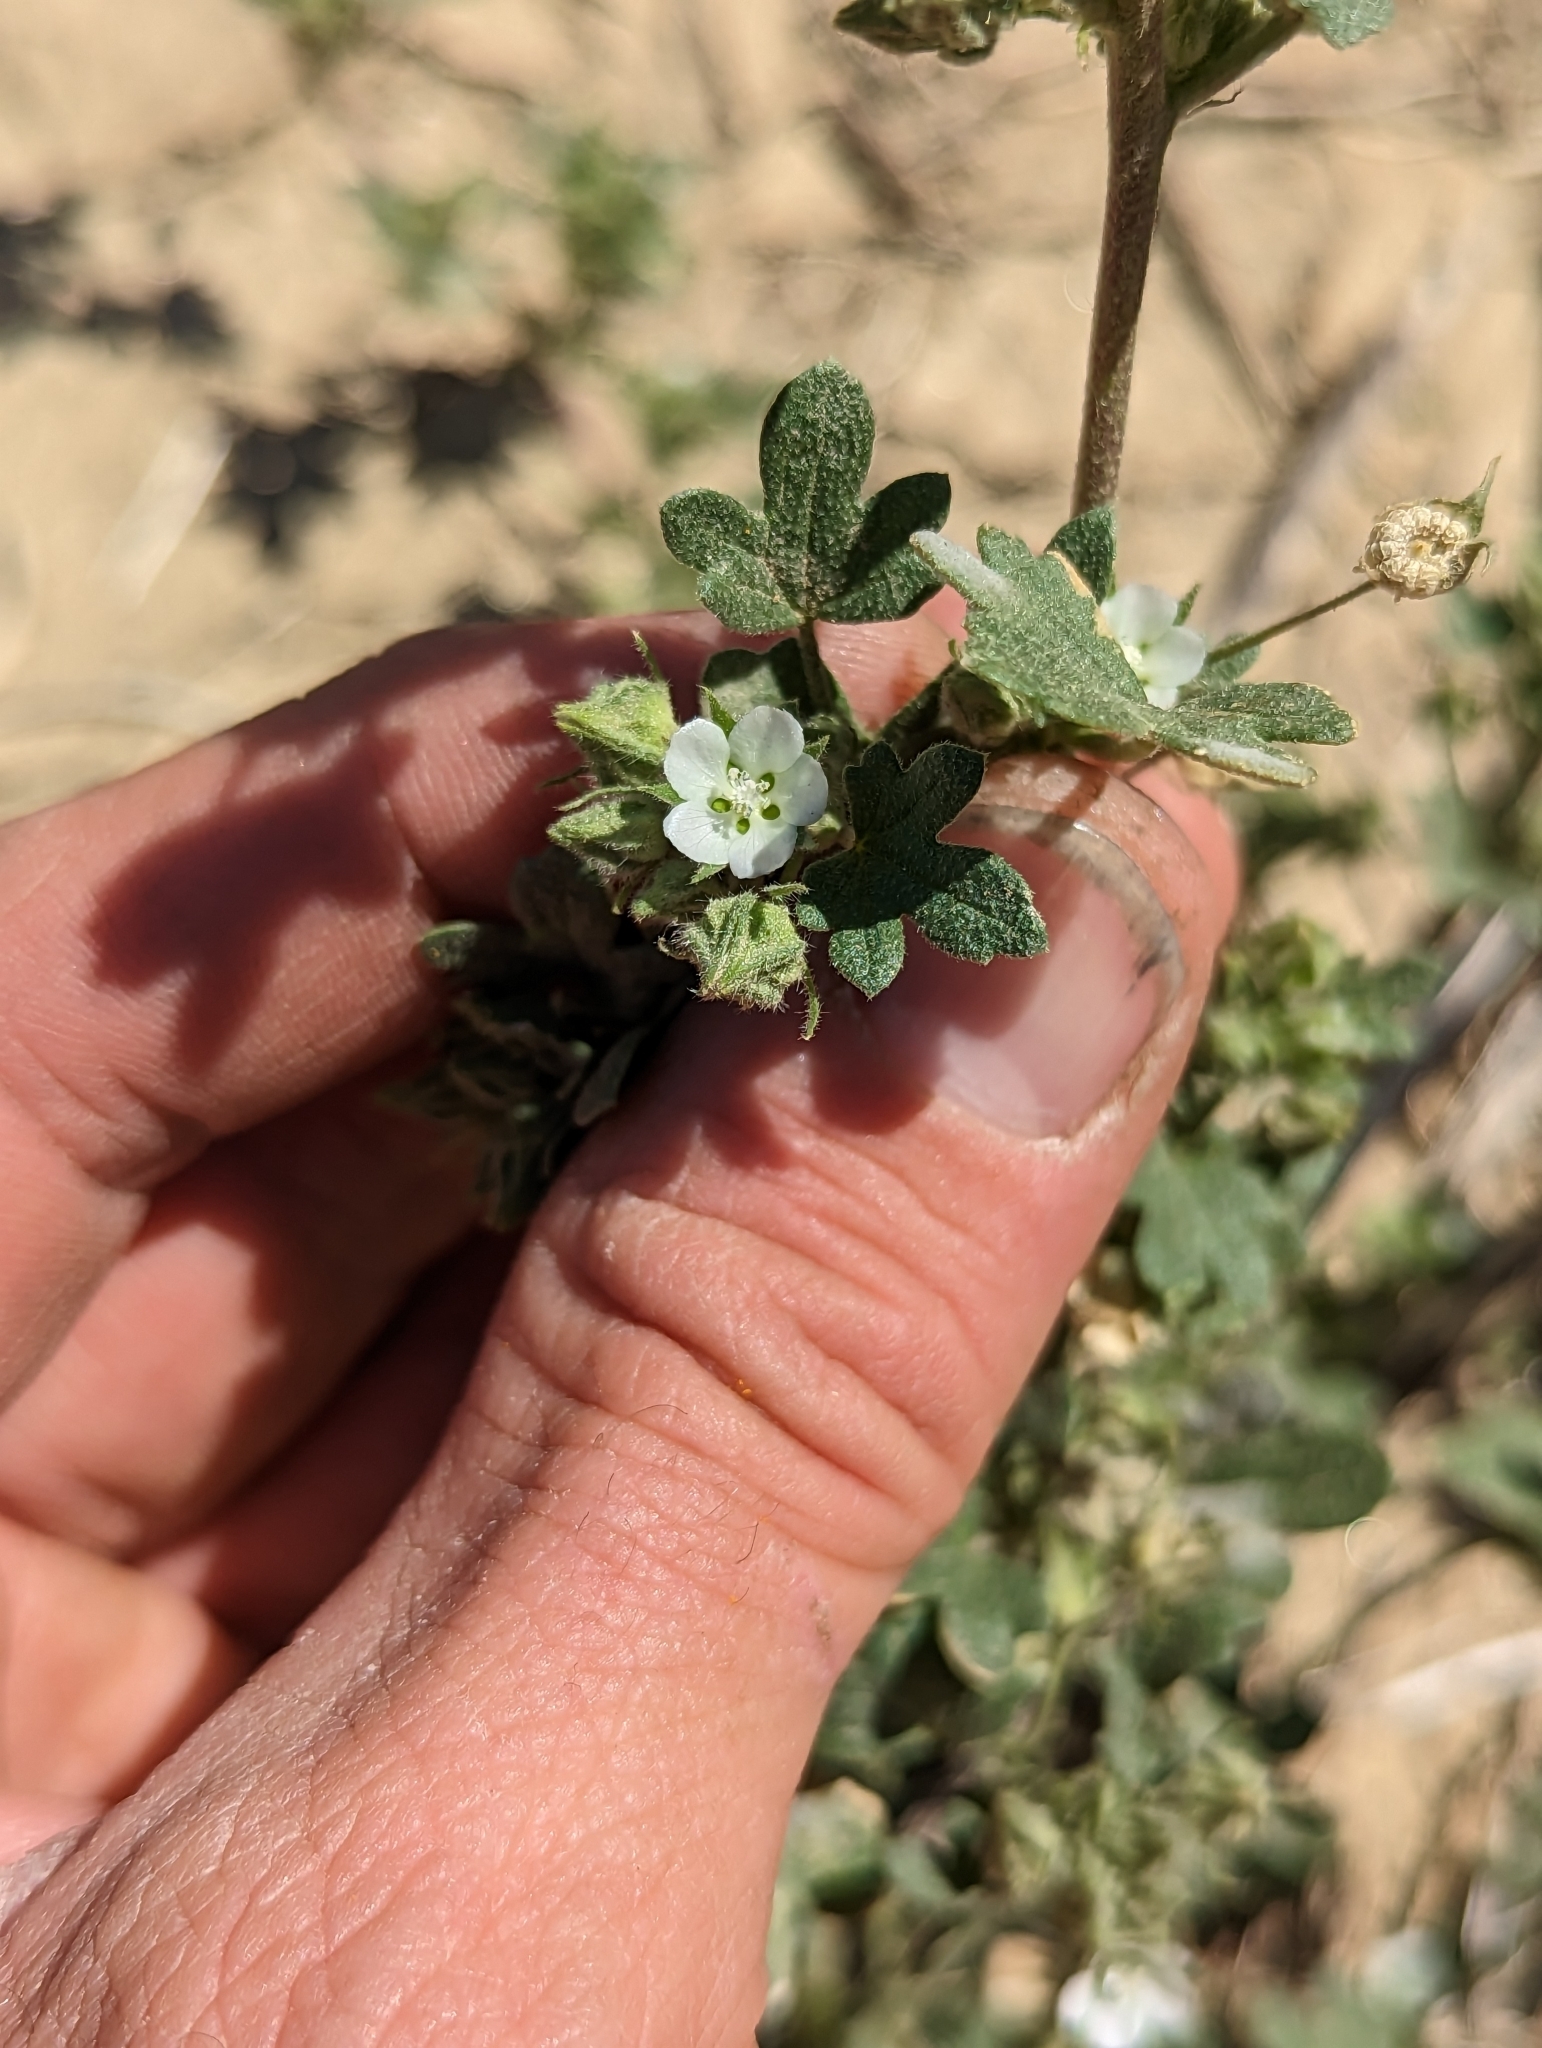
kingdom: Plantae
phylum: Tracheophyta
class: Magnoliopsida
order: Malvales
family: Malvaceae
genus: Eremalche
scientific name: Eremalche exilis
